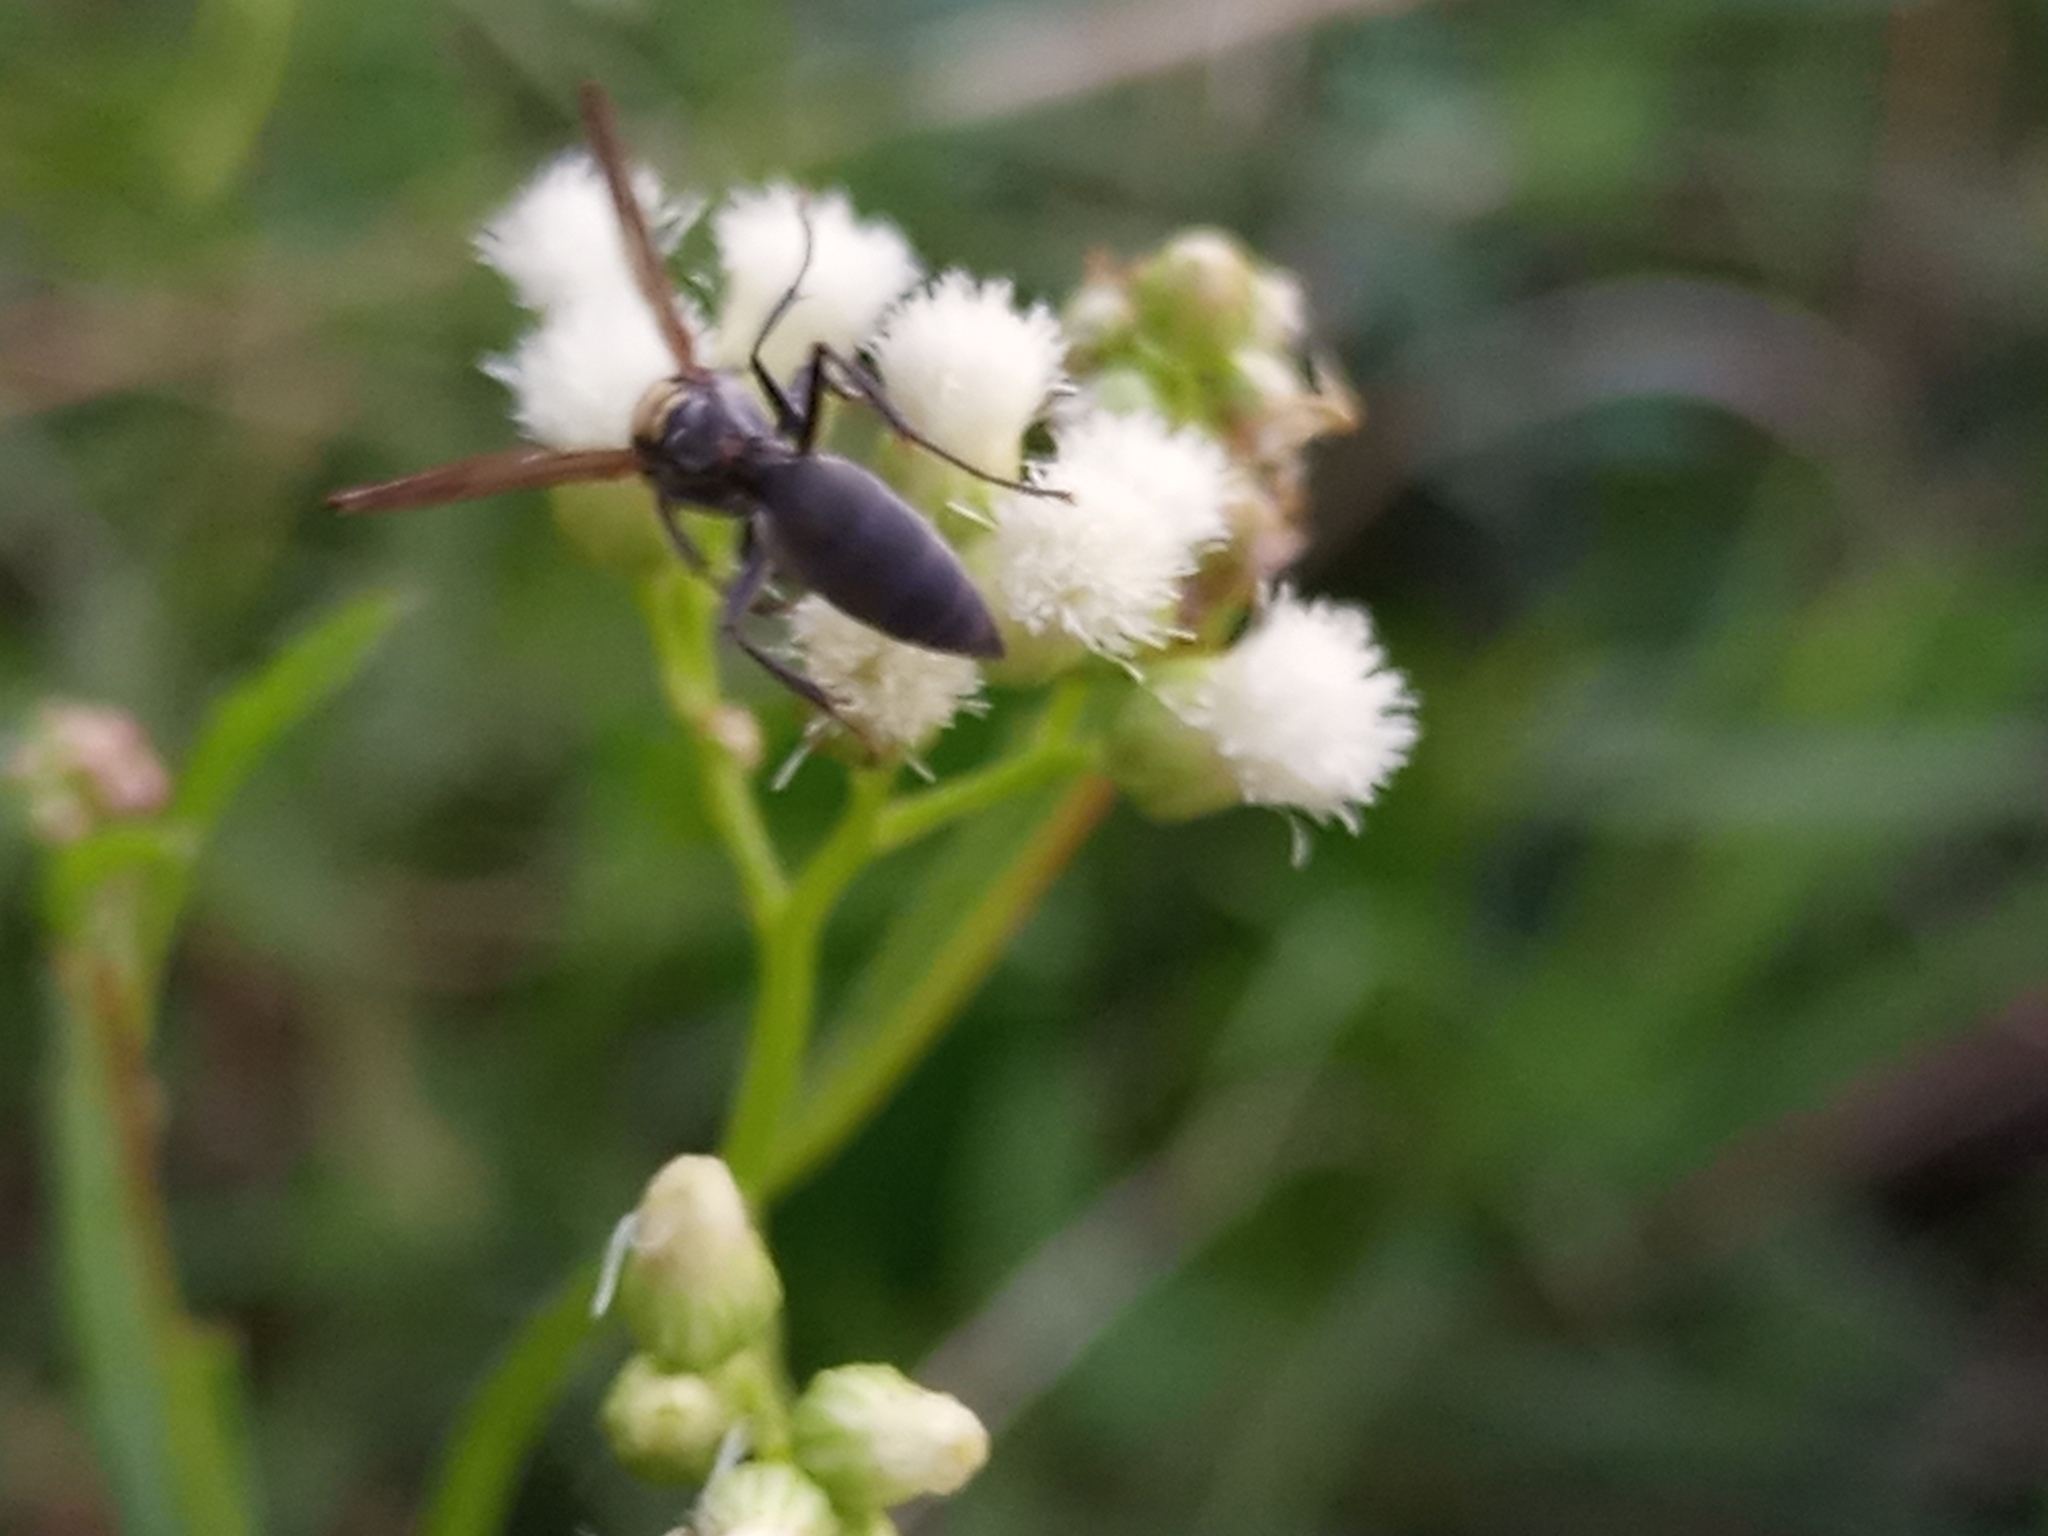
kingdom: Animalia
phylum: Arthropoda
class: Insecta
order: Hymenoptera
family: Eumenidae
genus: Polybia
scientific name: Polybia scutellaris
